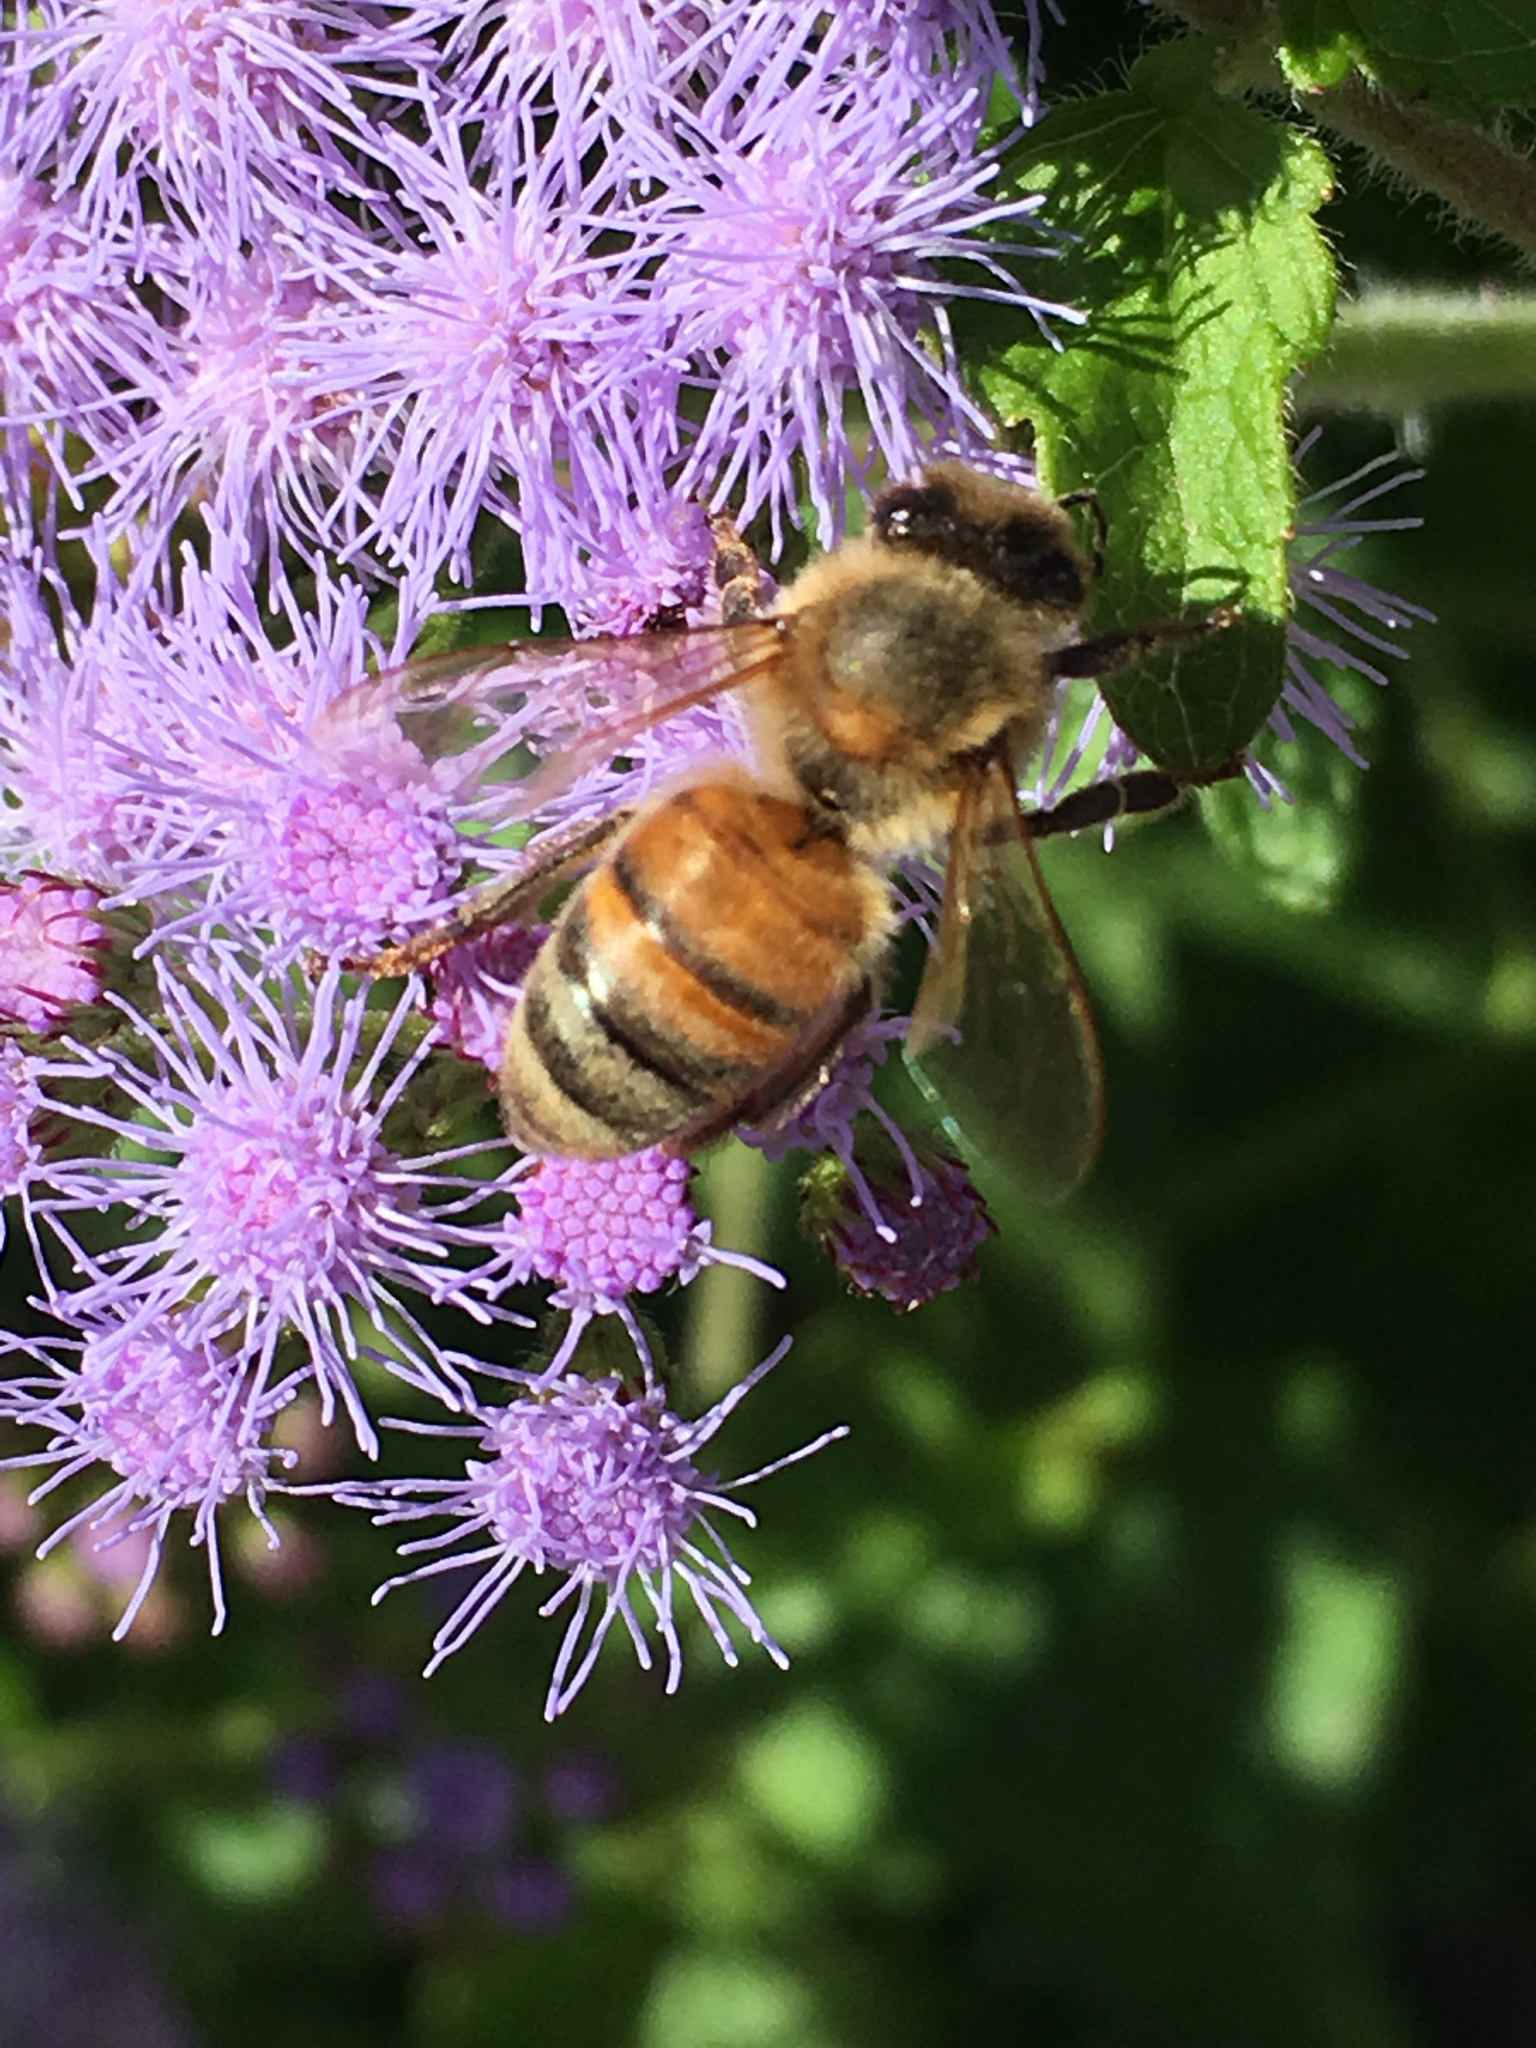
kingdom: Animalia
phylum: Arthropoda
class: Insecta
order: Hymenoptera
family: Apidae
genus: Apis
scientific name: Apis mellifera
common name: Honey bee
